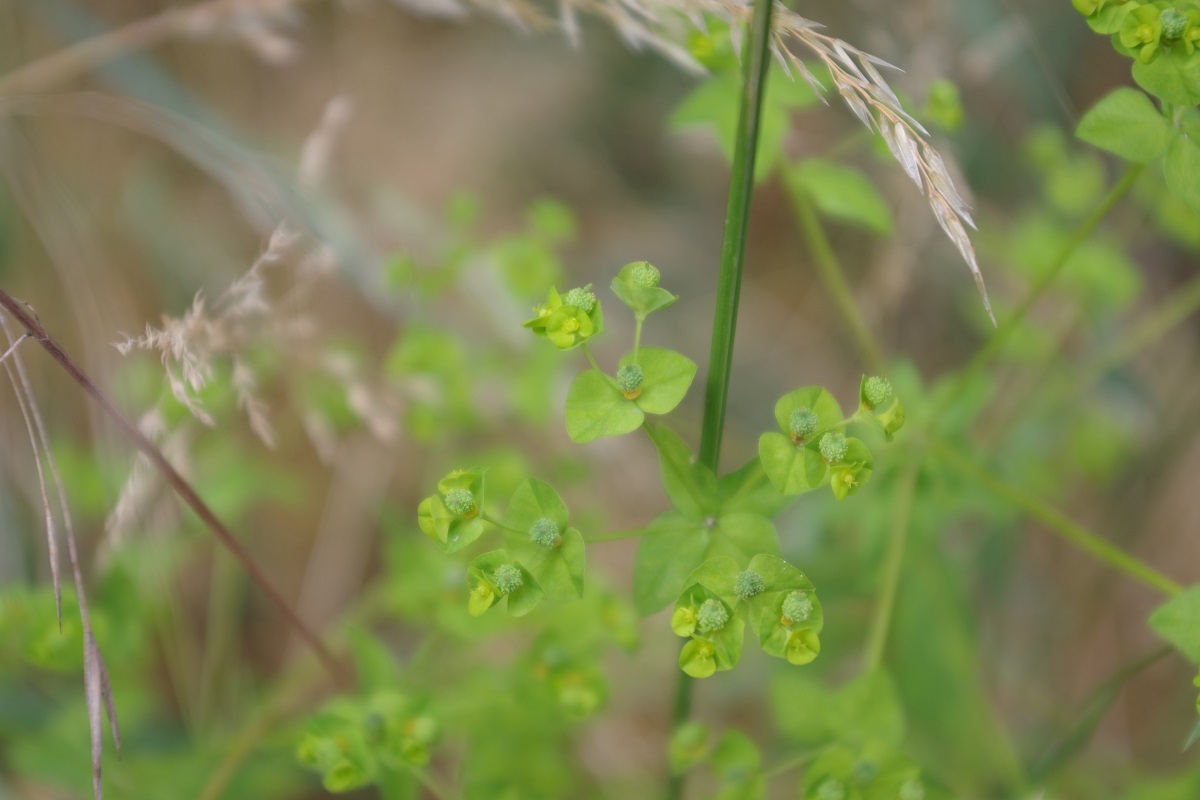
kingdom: Plantae
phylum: Tracheophyta
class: Magnoliopsida
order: Malpighiales
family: Euphorbiaceae
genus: Euphorbia
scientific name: Euphorbia stricta
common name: Upright spurge
